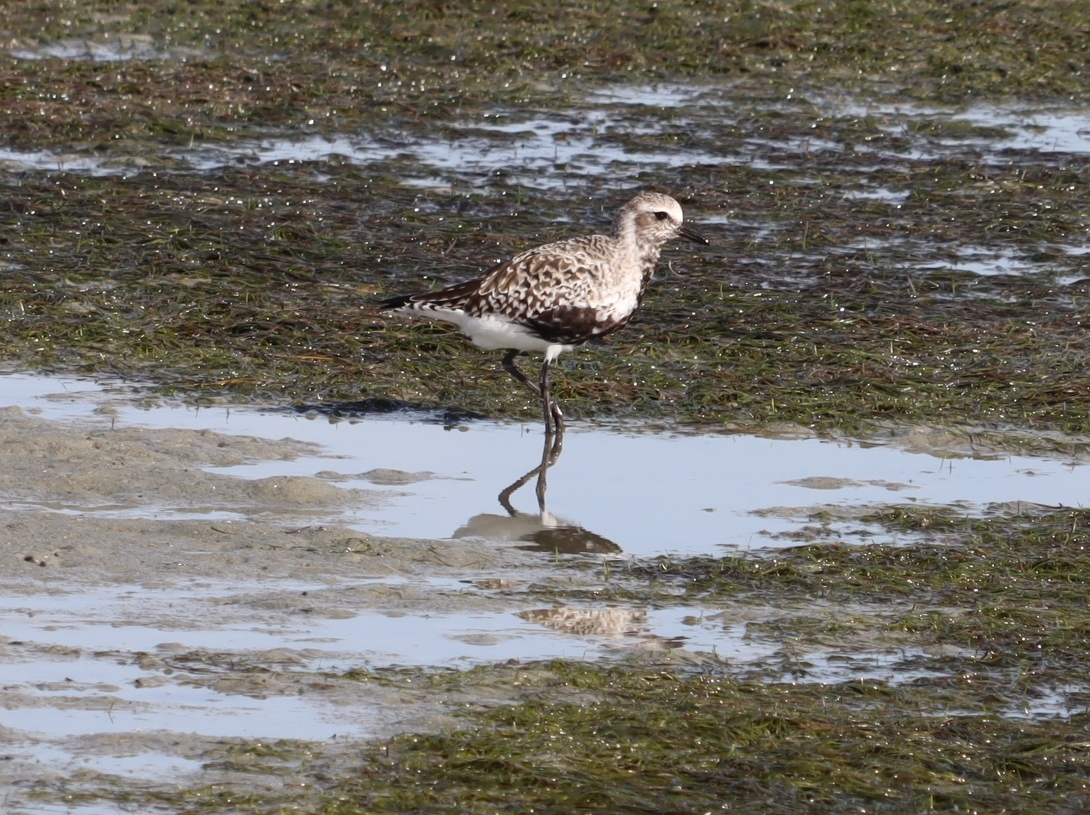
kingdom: Animalia
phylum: Chordata
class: Aves
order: Charadriiformes
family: Charadriidae
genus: Pluvialis
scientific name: Pluvialis squatarola
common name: Grey plover
